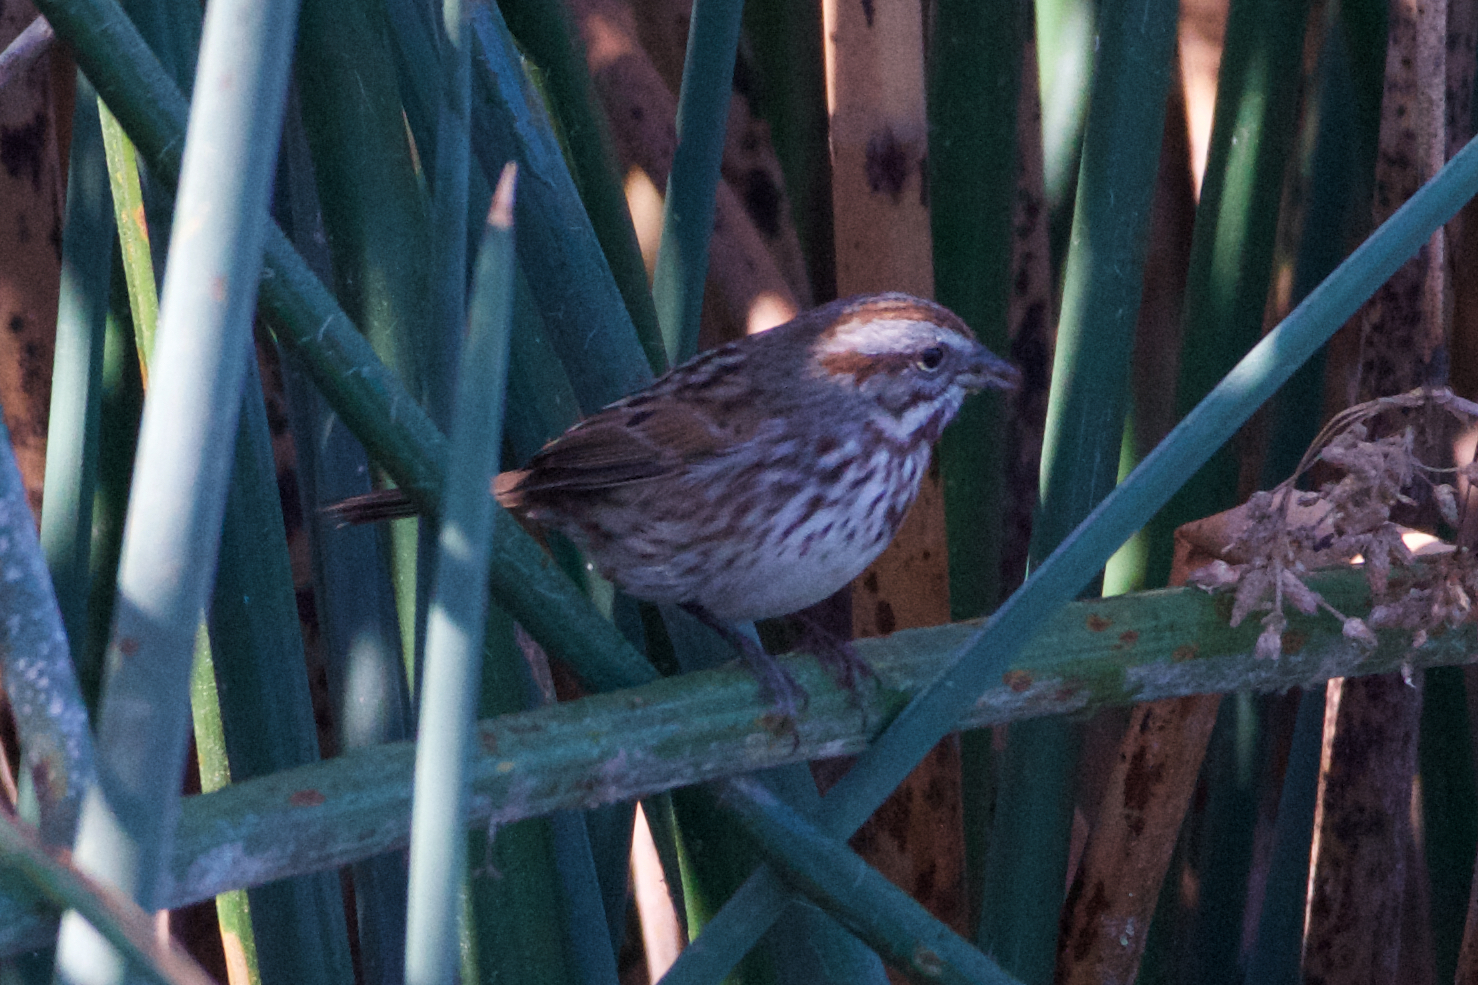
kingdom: Animalia
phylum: Chordata
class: Aves
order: Passeriformes
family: Passerellidae
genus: Melospiza
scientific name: Melospiza melodia
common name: Song sparrow
